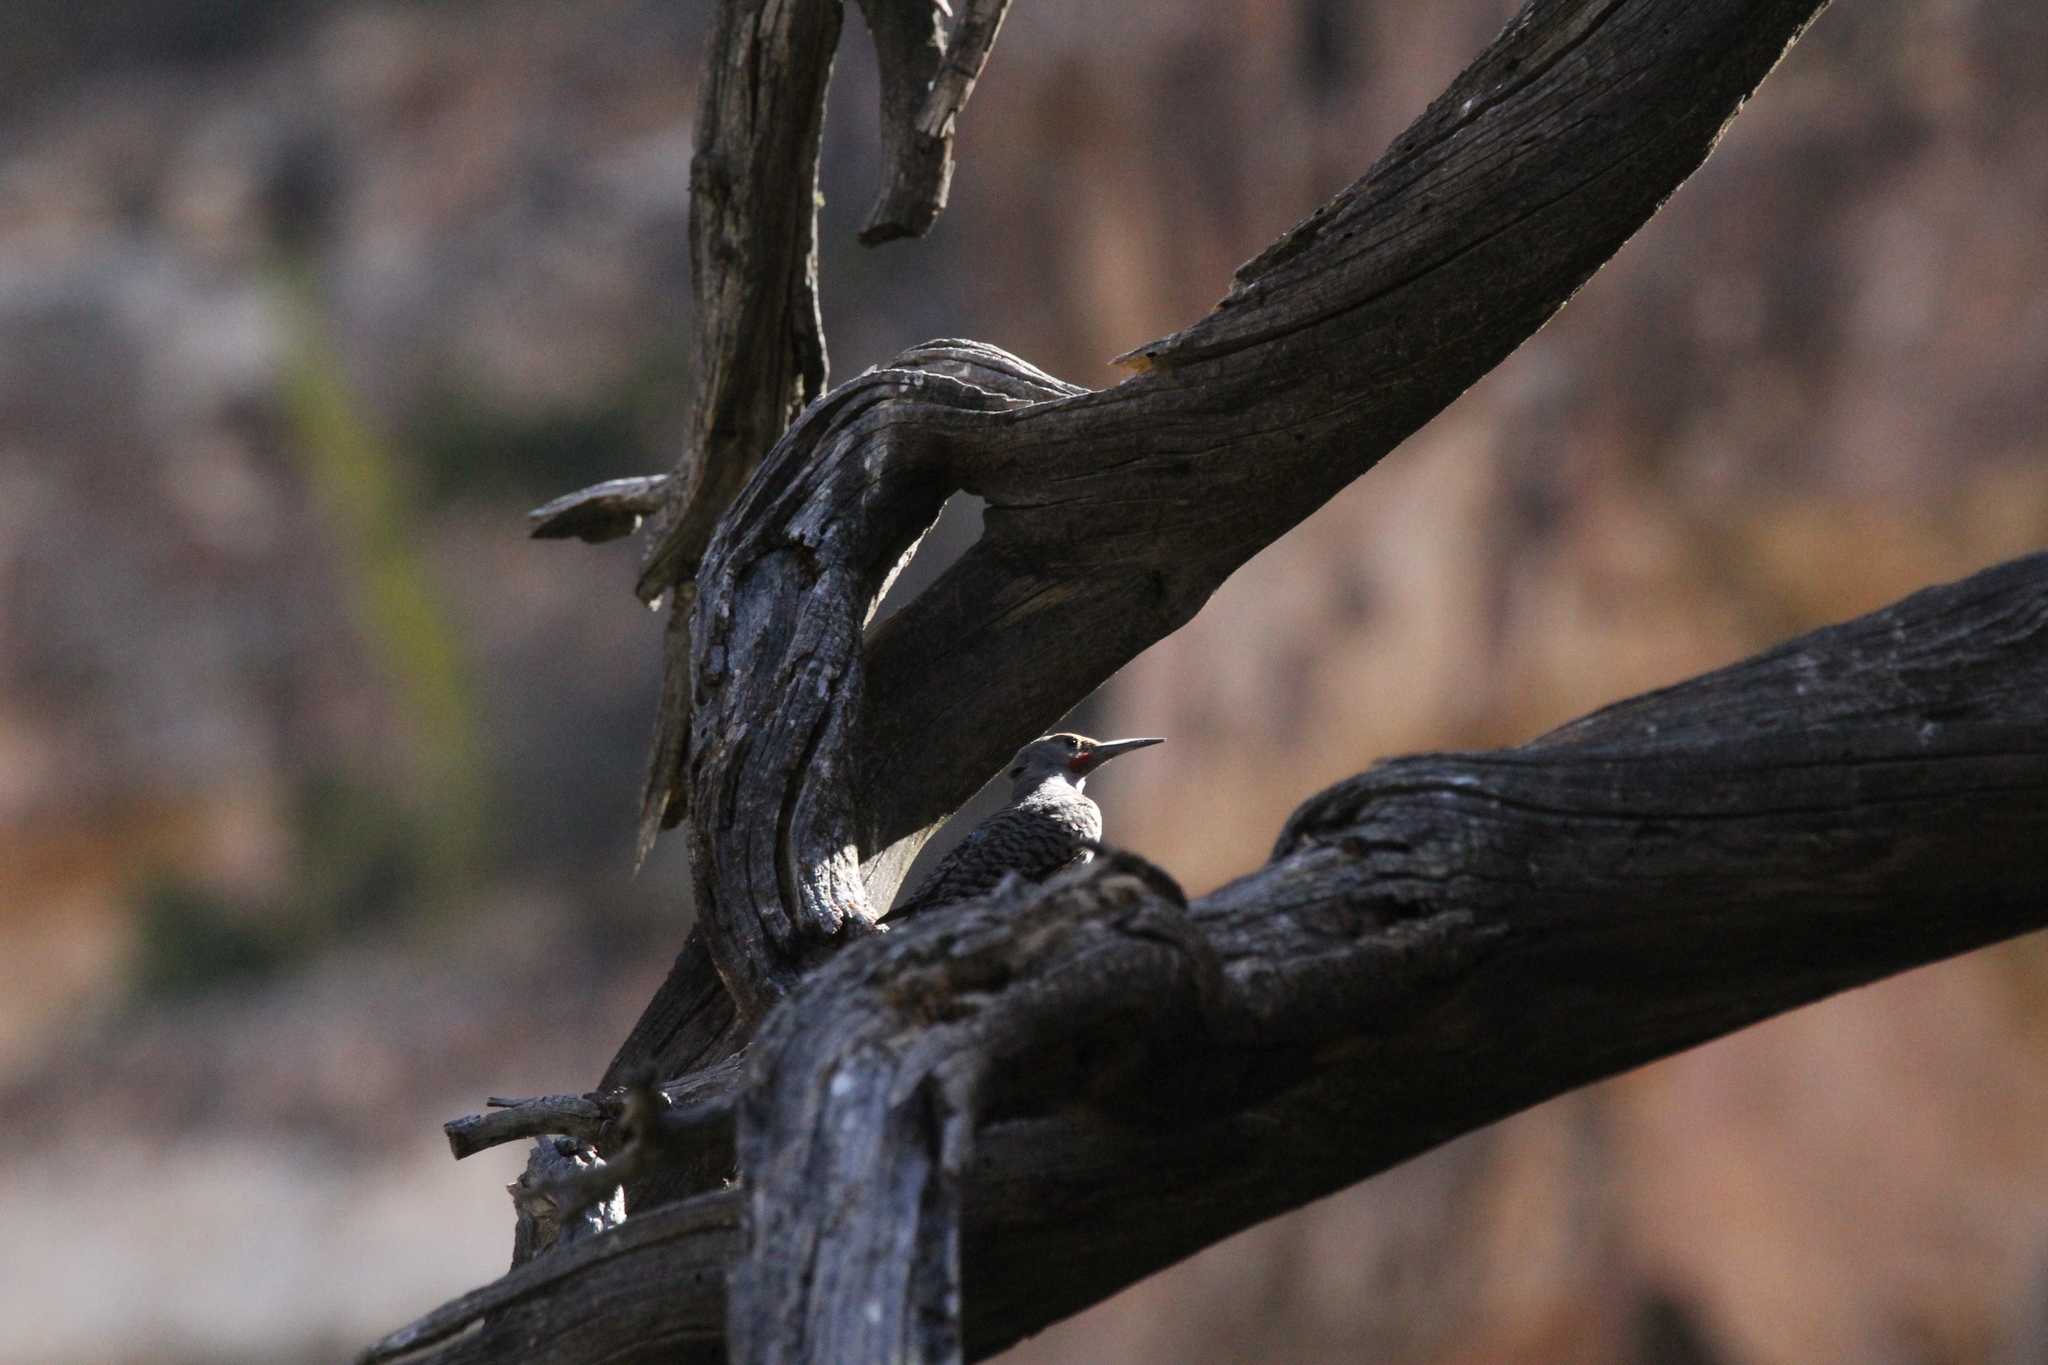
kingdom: Animalia
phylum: Chordata
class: Aves
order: Piciformes
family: Picidae
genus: Colaptes
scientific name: Colaptes auratus
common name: Northern flicker
